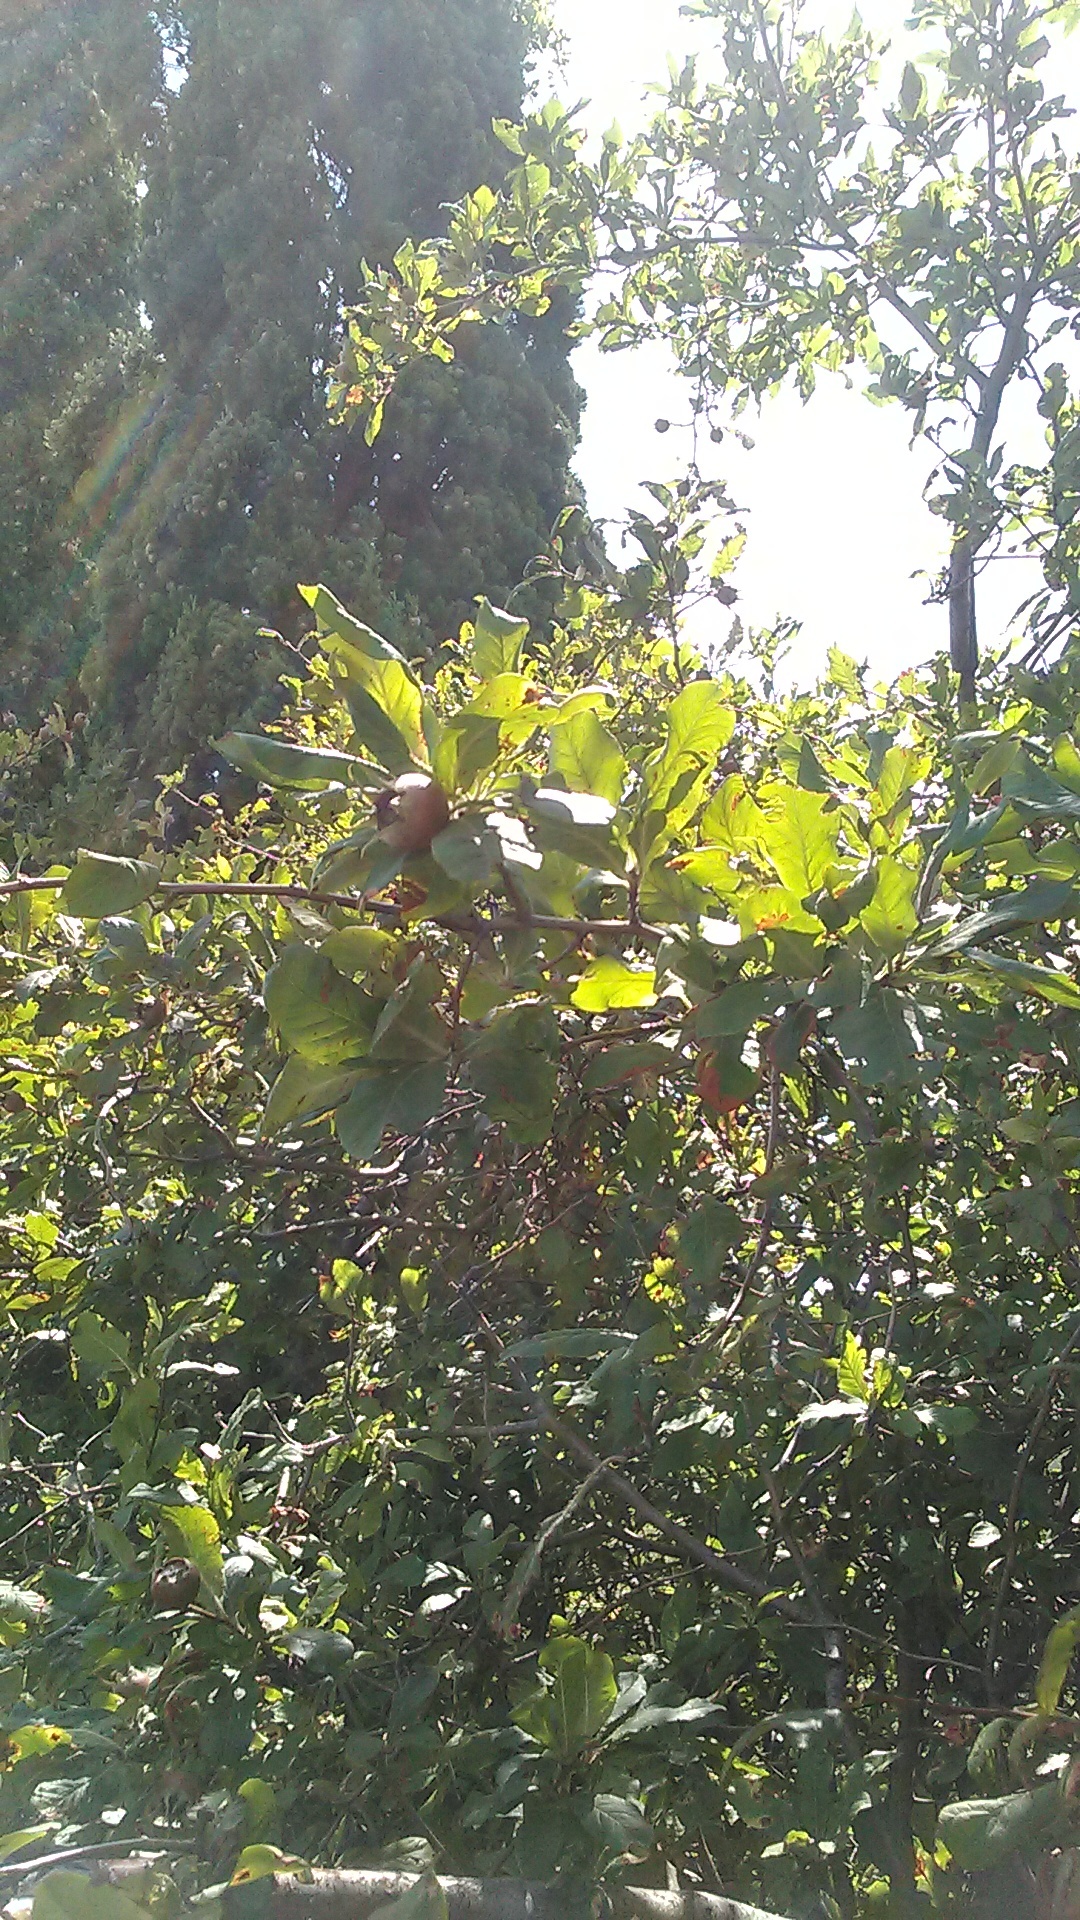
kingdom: Plantae
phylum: Tracheophyta
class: Magnoliopsida
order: Rosales
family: Rosaceae
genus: Mespilus
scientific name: Mespilus germanica
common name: Medlar
